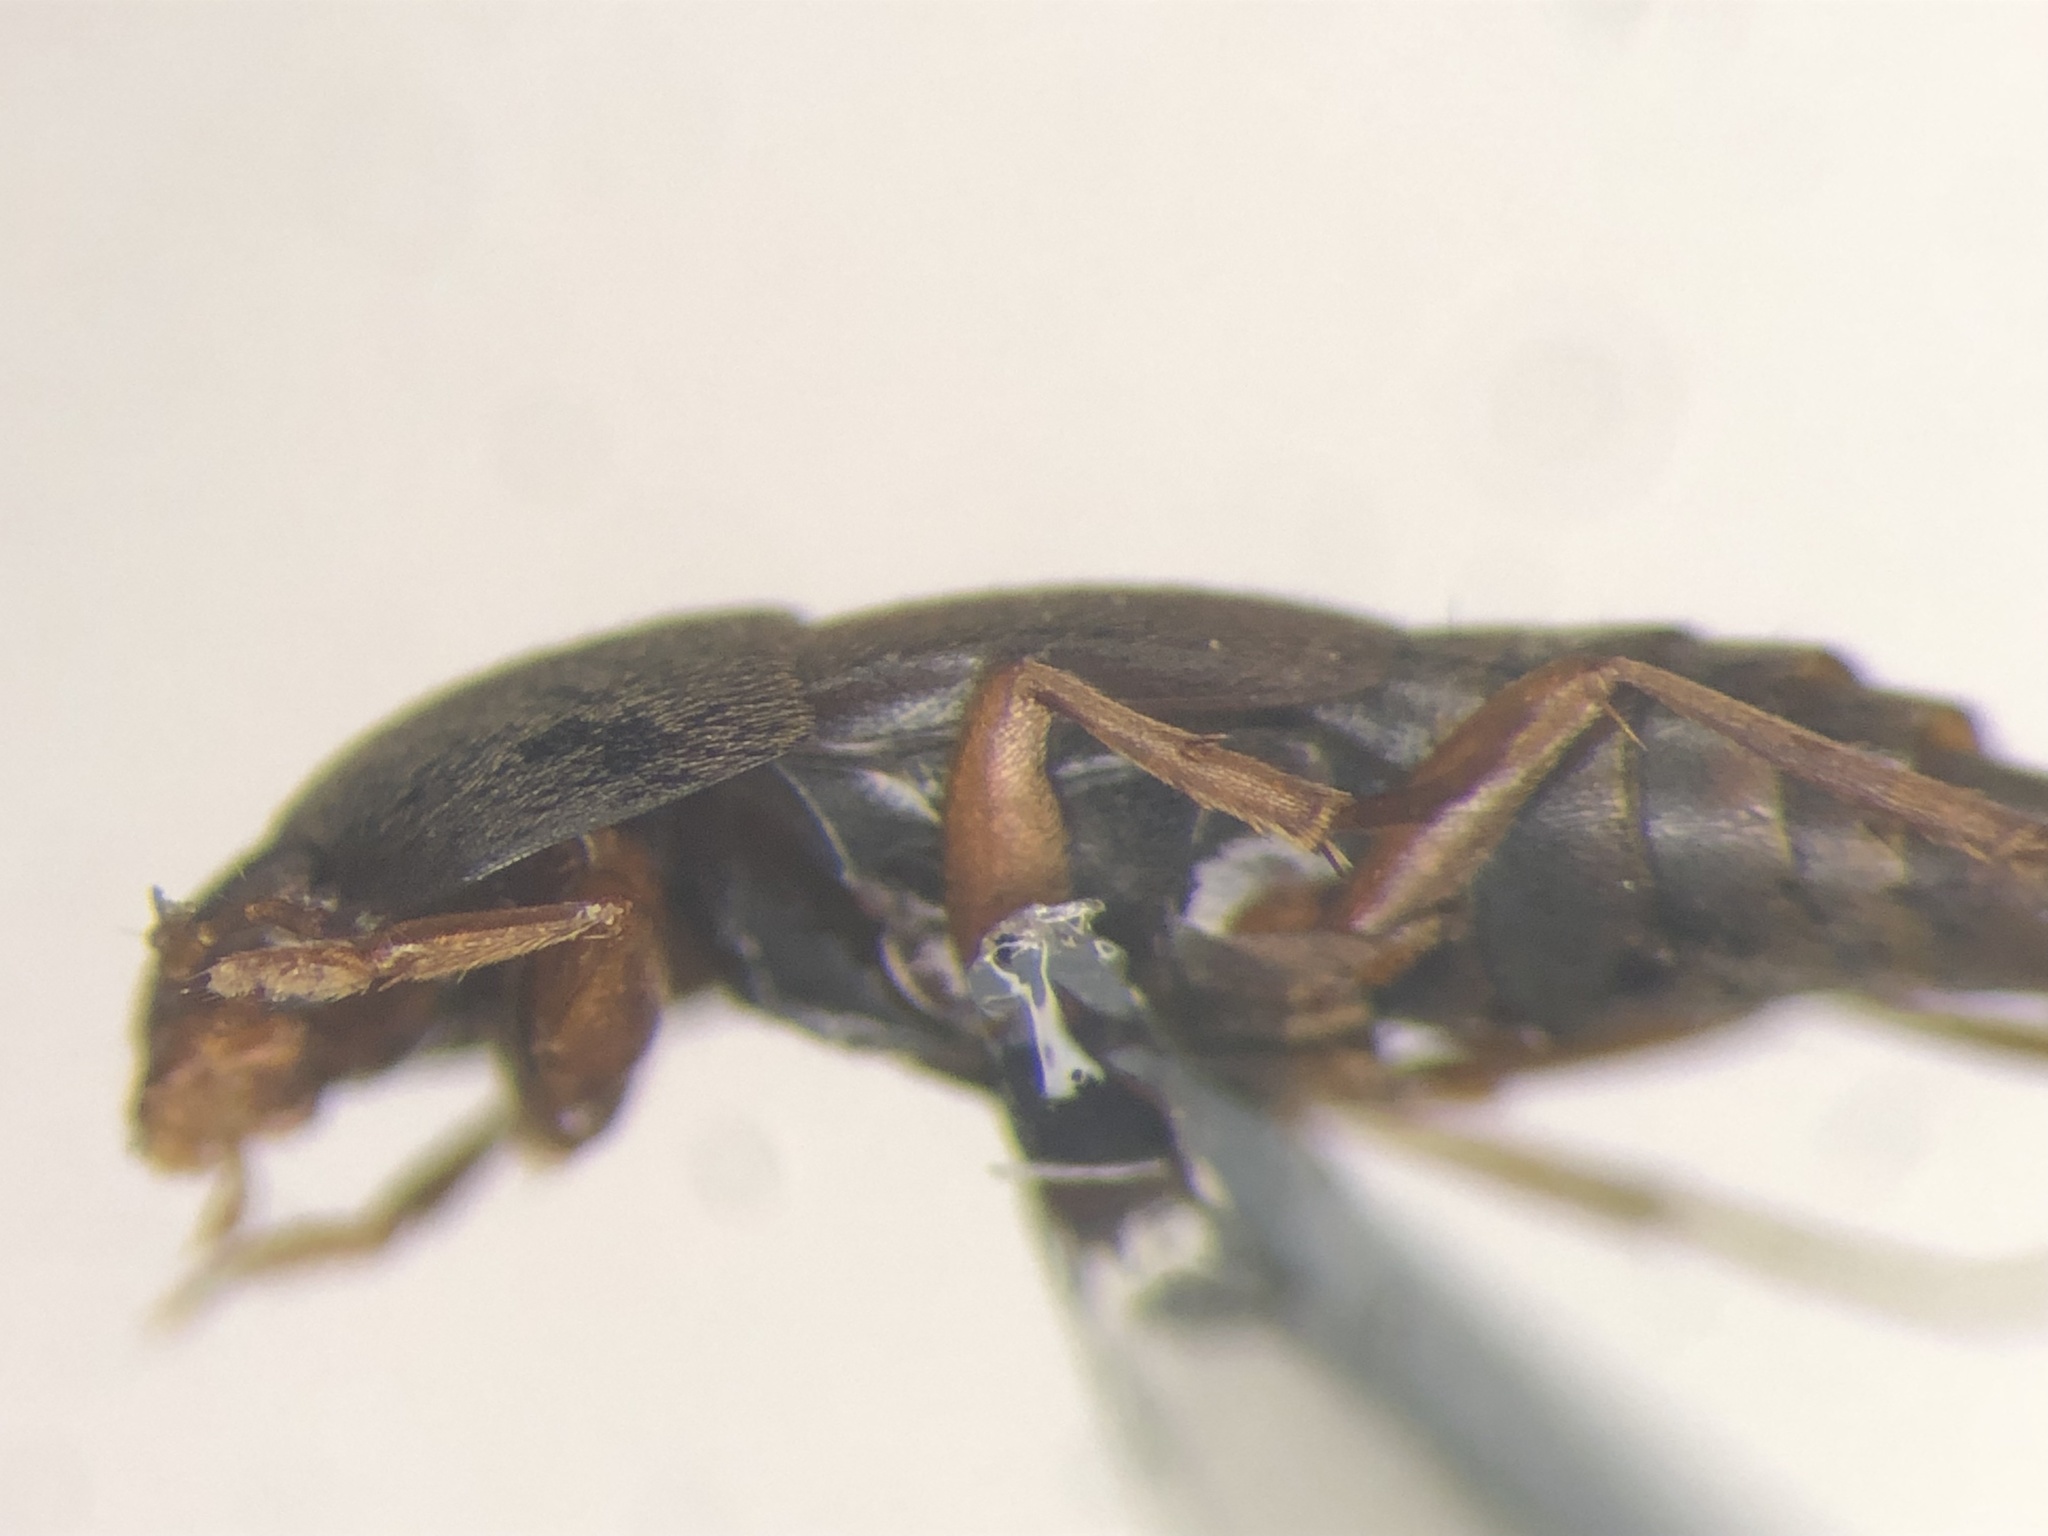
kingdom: Animalia
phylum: Arthropoda
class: Insecta
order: Coleoptera
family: Staphylinidae
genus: Sepedophilus
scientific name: Sepedophilus marshami
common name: Staph beetle
